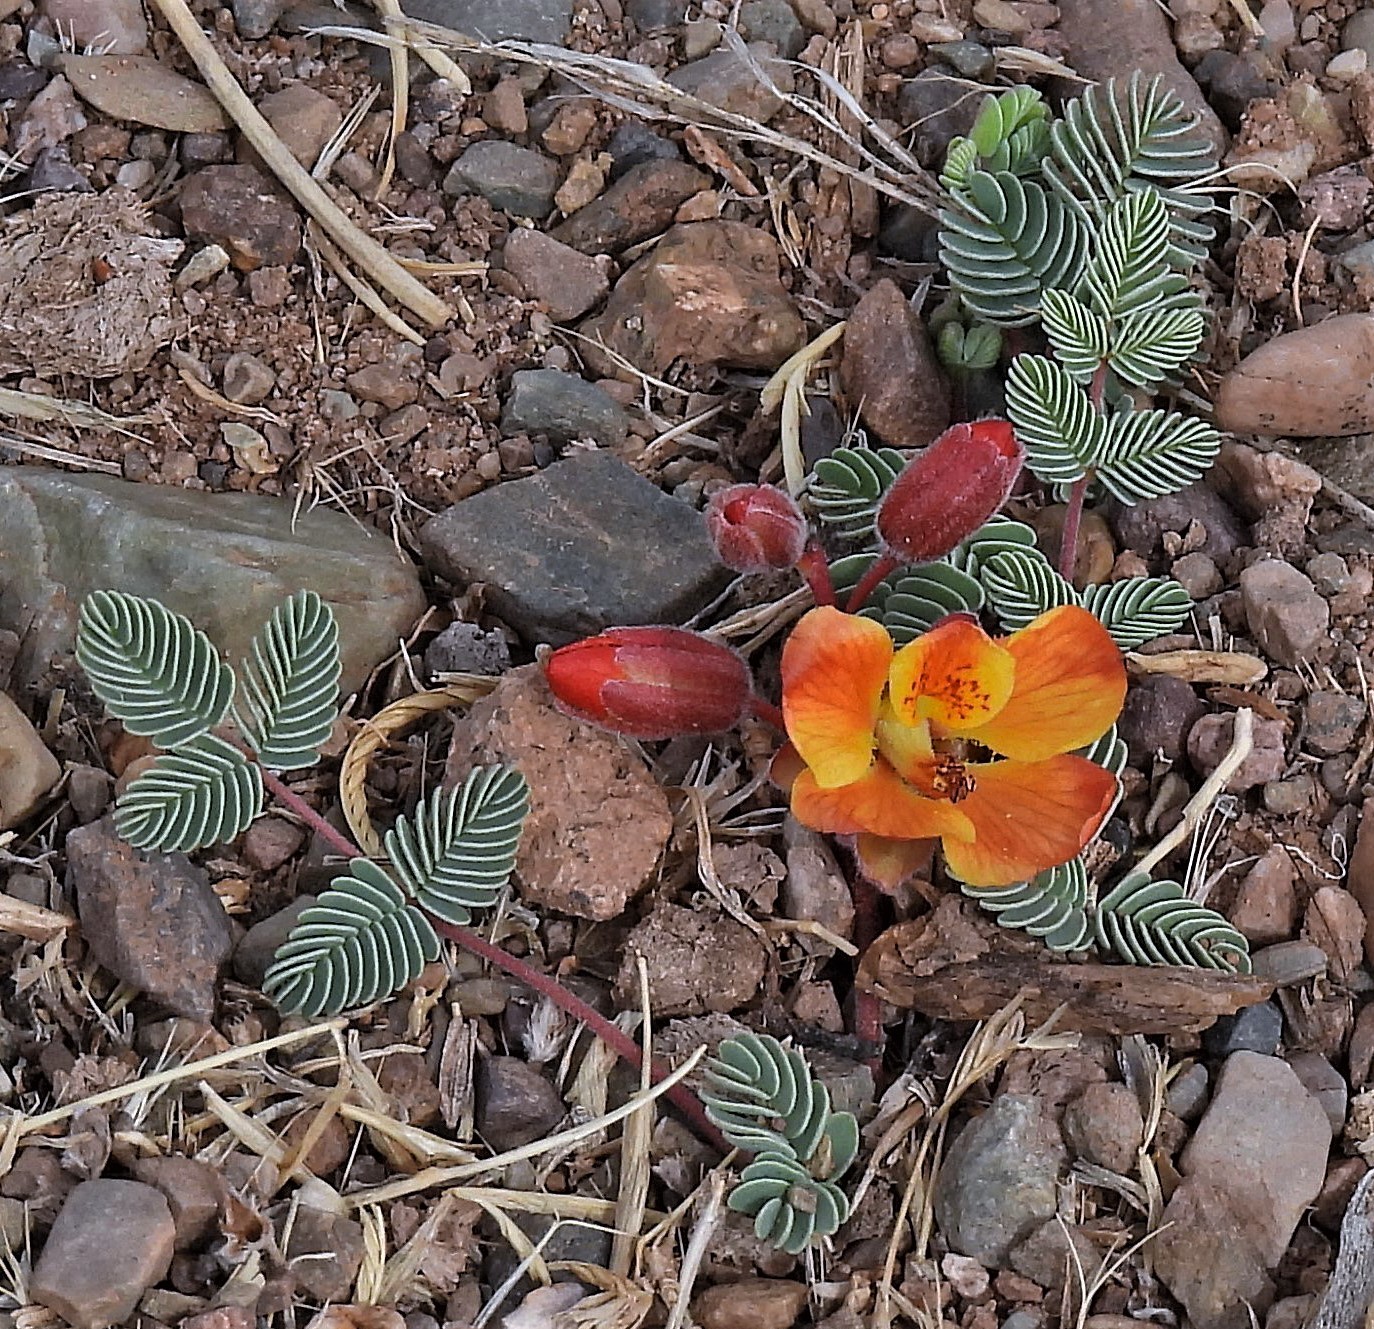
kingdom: Plantae
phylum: Tracheophyta
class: Magnoliopsida
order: Fabales
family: Fabaceae
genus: Hoffmannseggia
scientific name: Hoffmannseggia minor
